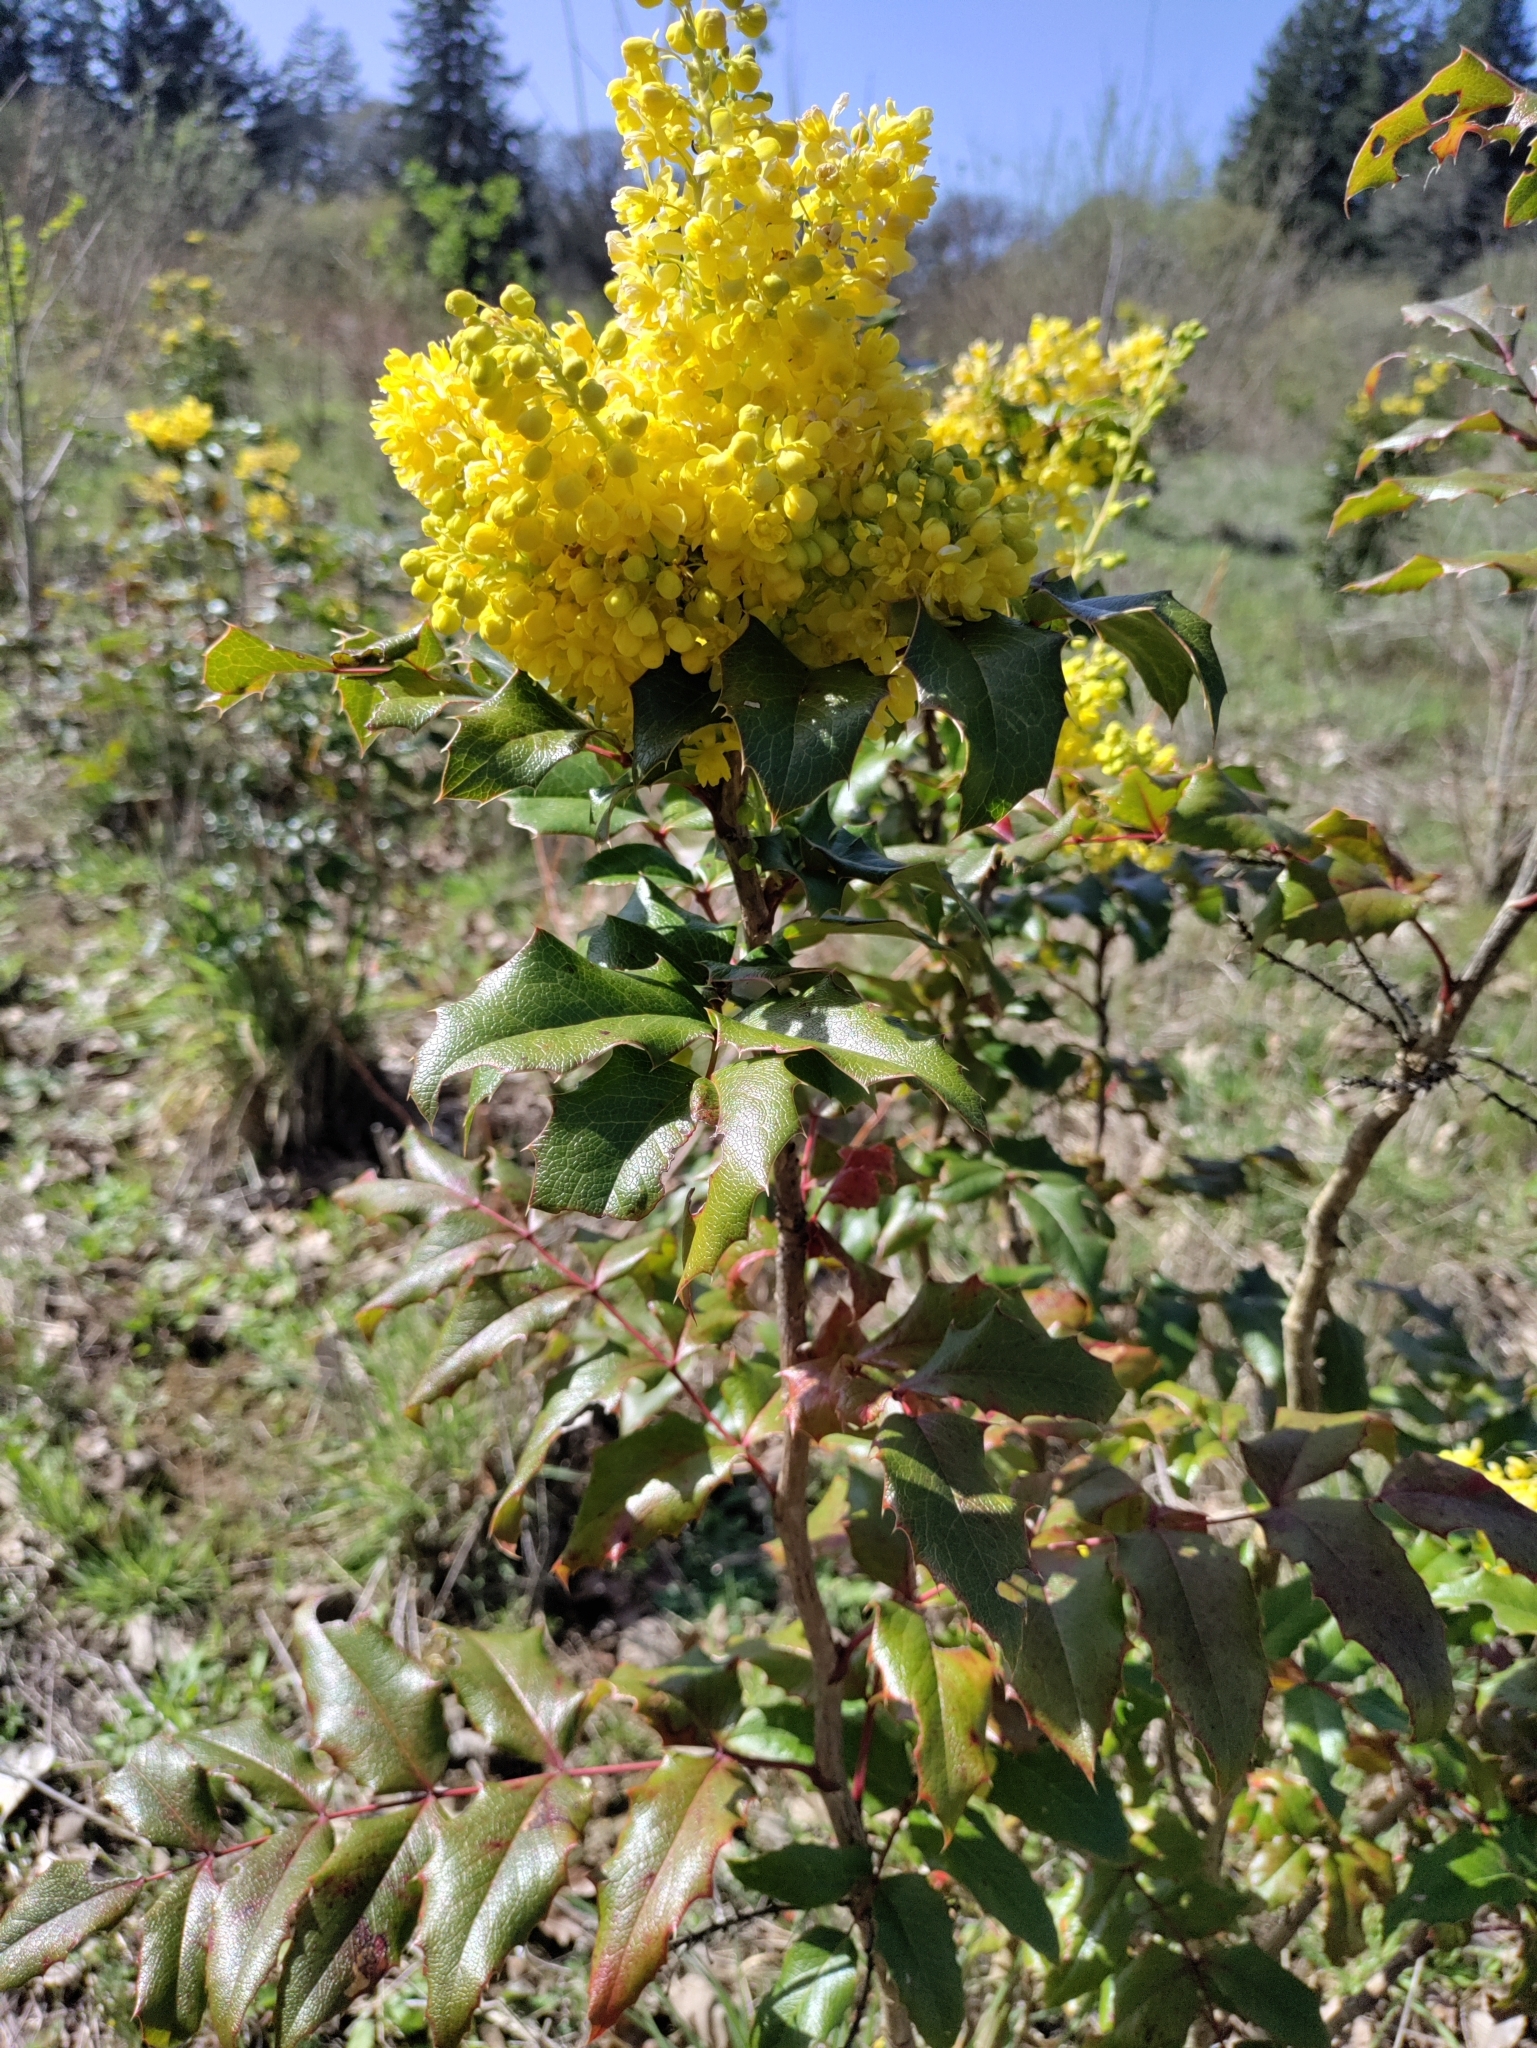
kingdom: Plantae
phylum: Tracheophyta
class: Magnoliopsida
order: Ranunculales
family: Berberidaceae
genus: Mahonia
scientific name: Mahonia aquifolium
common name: Oregon-grape
